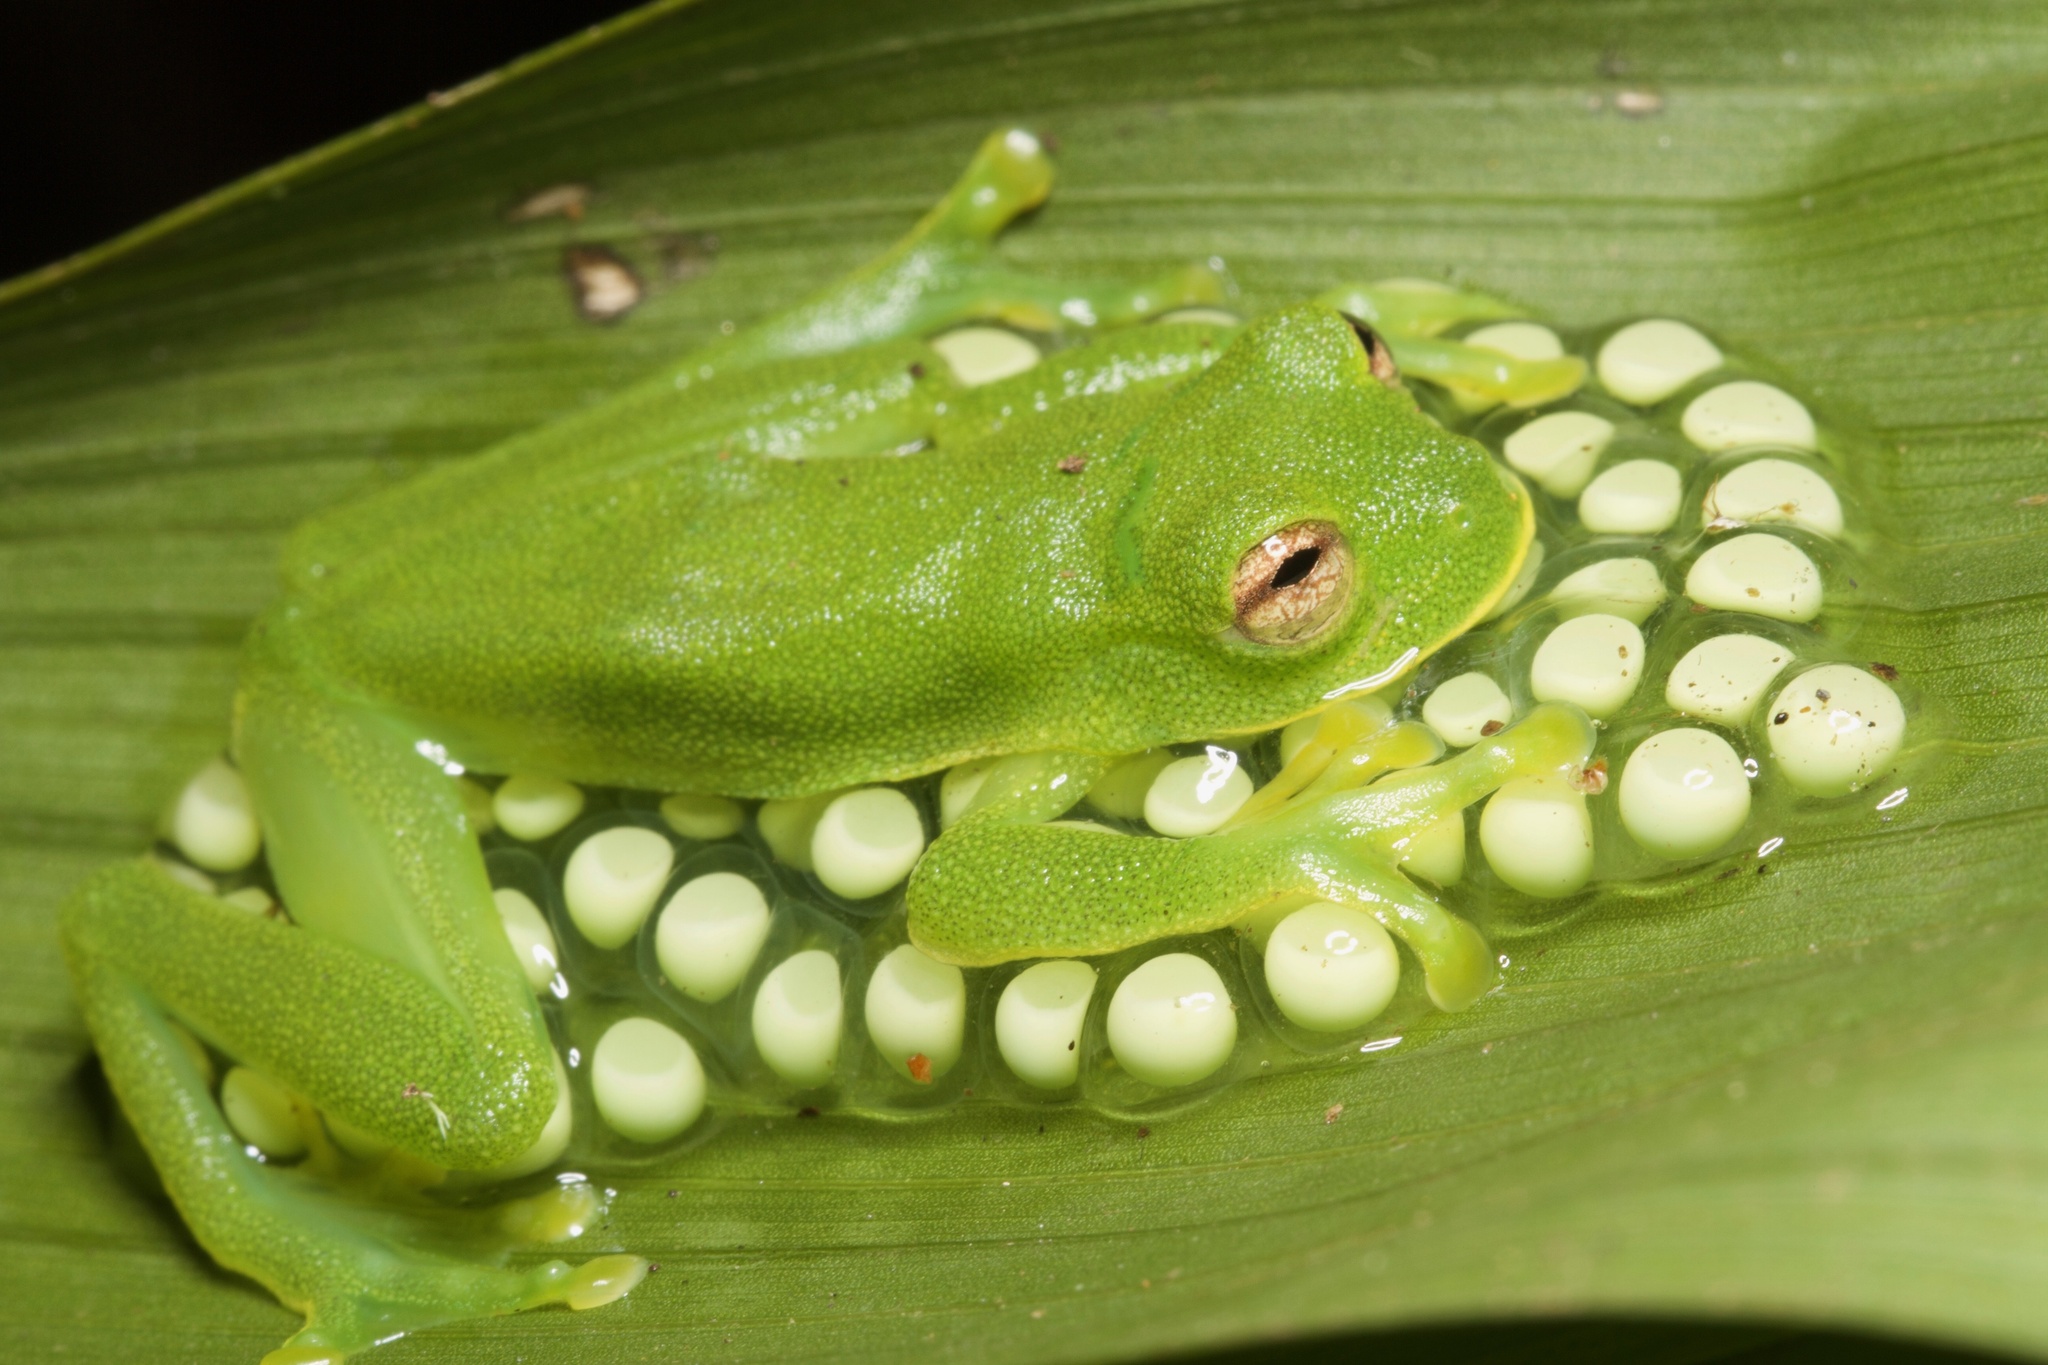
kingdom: Animalia
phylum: Chordata
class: Amphibia
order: Anura
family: Centrolenidae
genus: Ikakogi
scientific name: Ikakogi tayrona
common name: Magdalena giant glass frog
